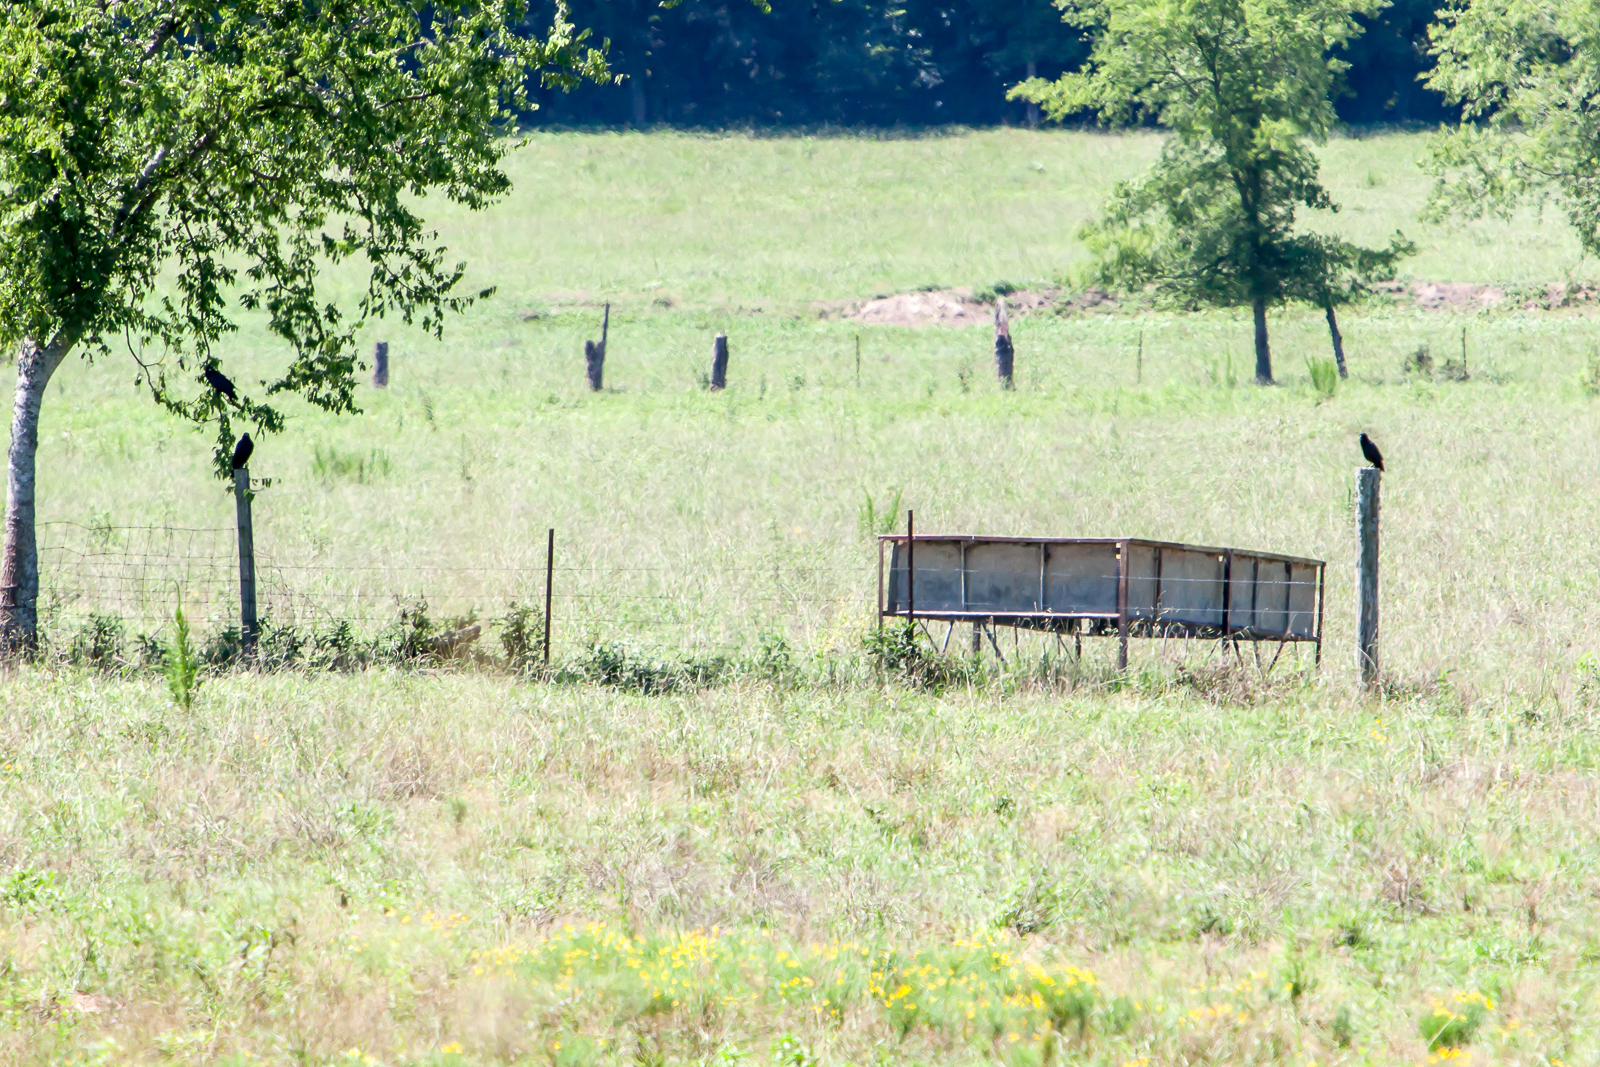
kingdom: Animalia
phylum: Chordata
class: Aves
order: Passeriformes
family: Corvidae
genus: Corvus
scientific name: Corvus brachyrhynchos
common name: American crow
